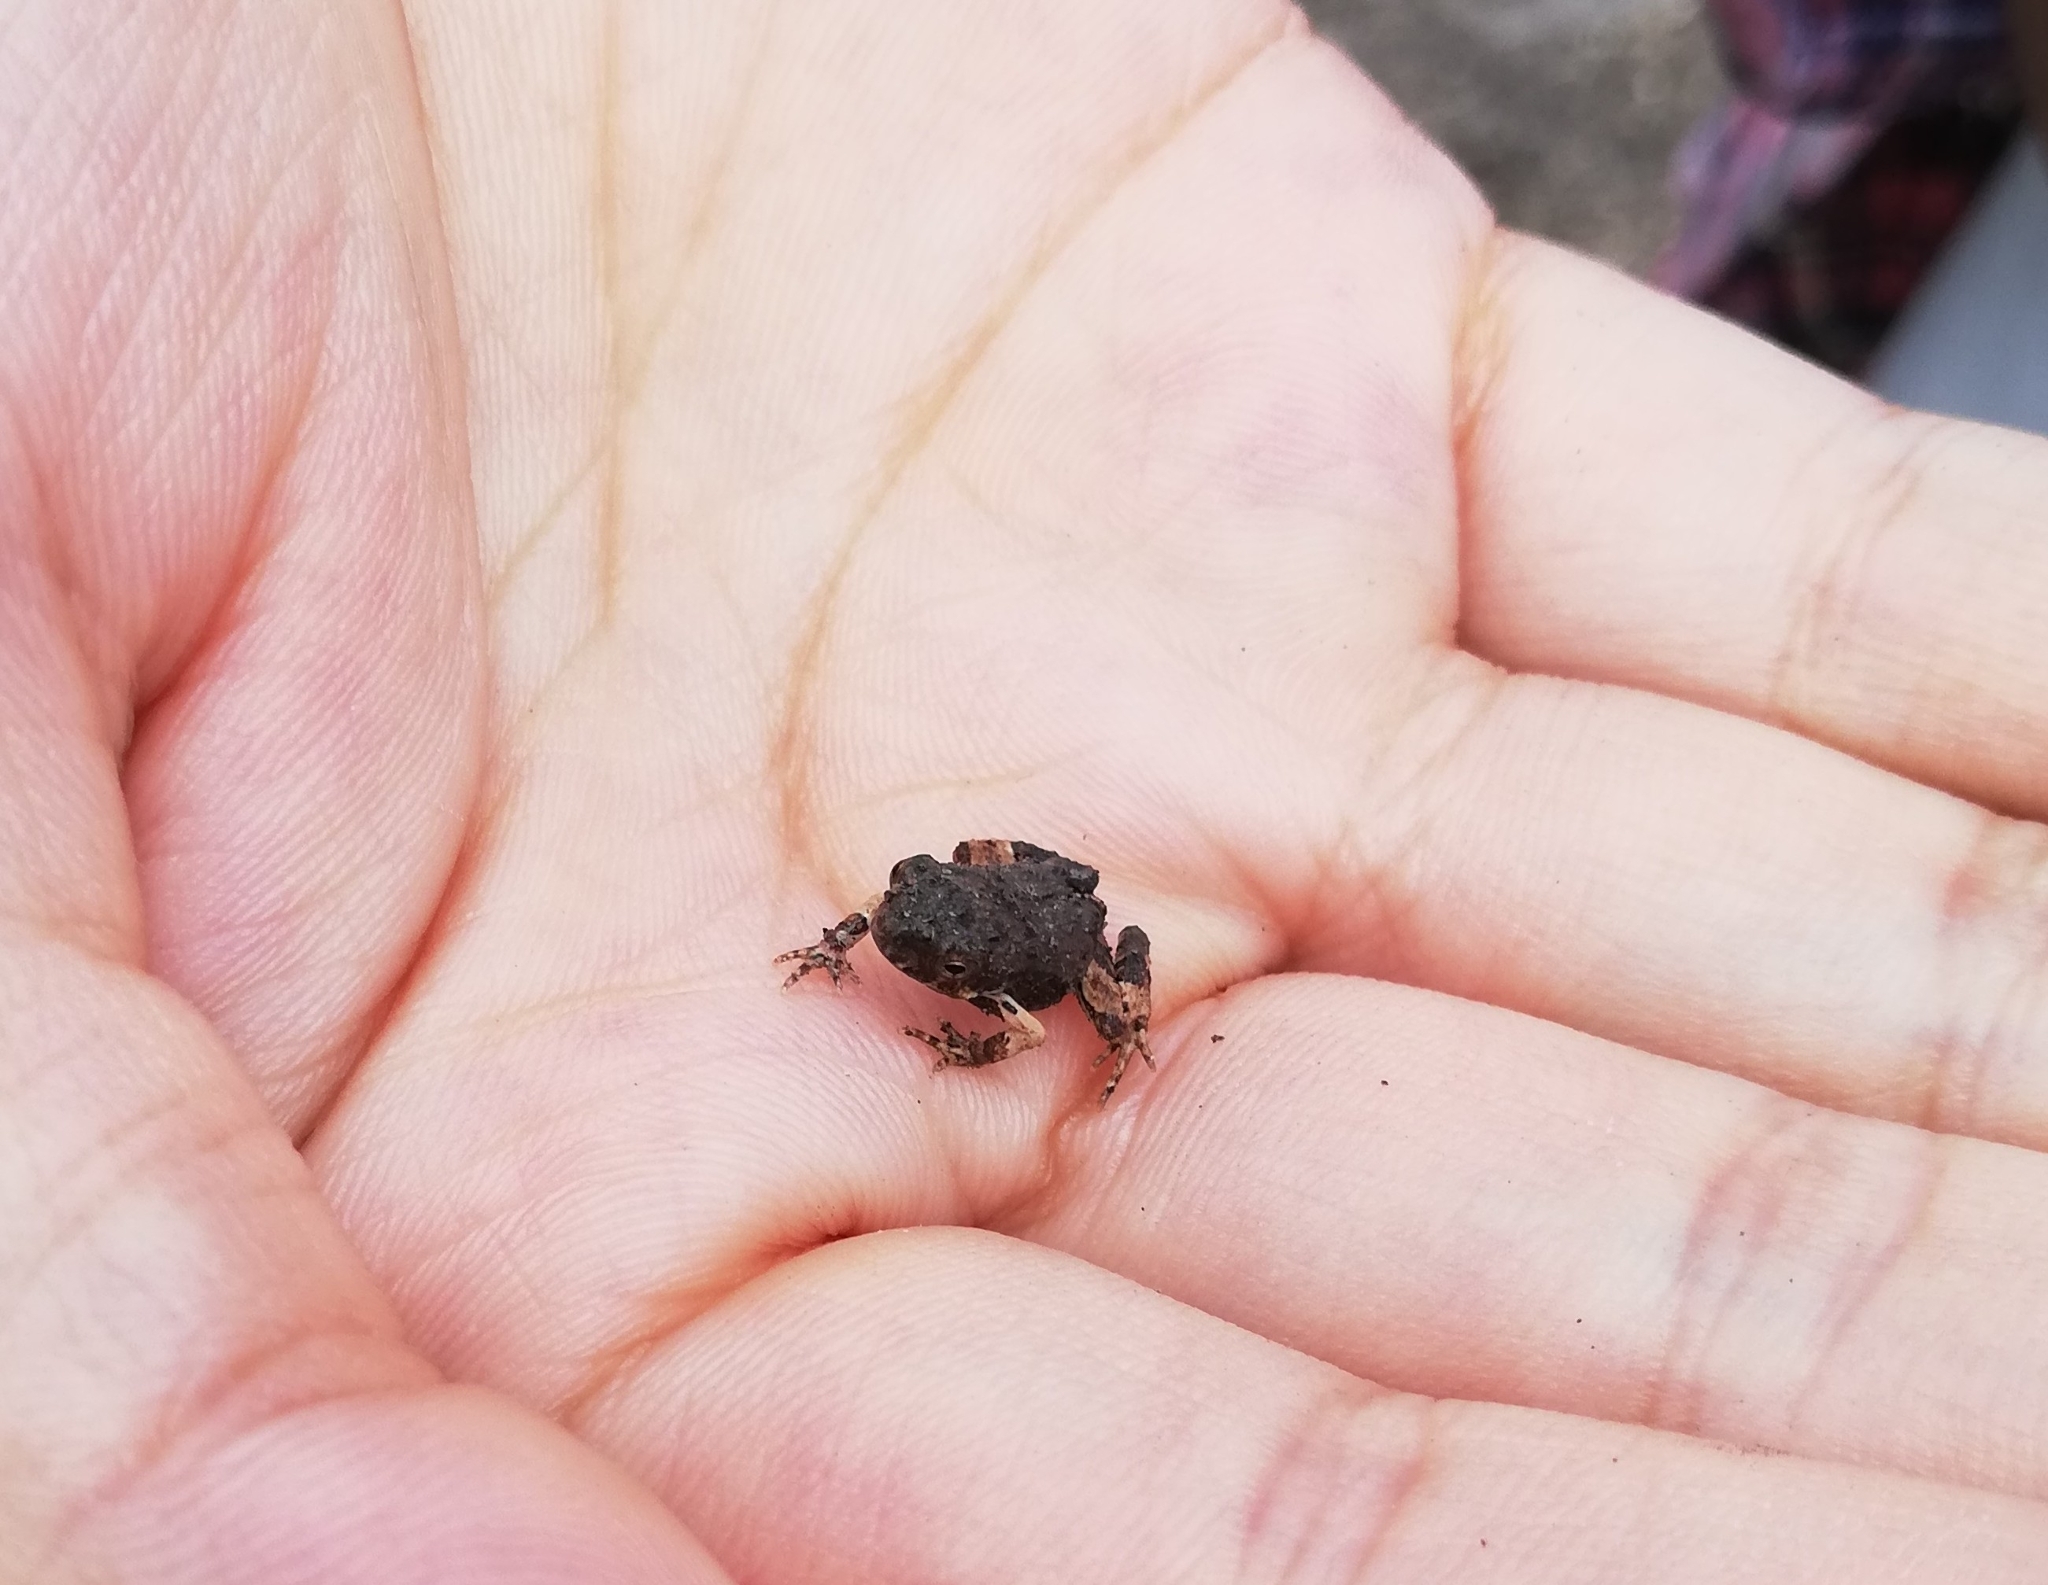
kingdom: Animalia
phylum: Chordata
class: Amphibia
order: Anura
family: Leptodactylidae
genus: Engystomops
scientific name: Engystomops pustulosus
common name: Tungara frog
